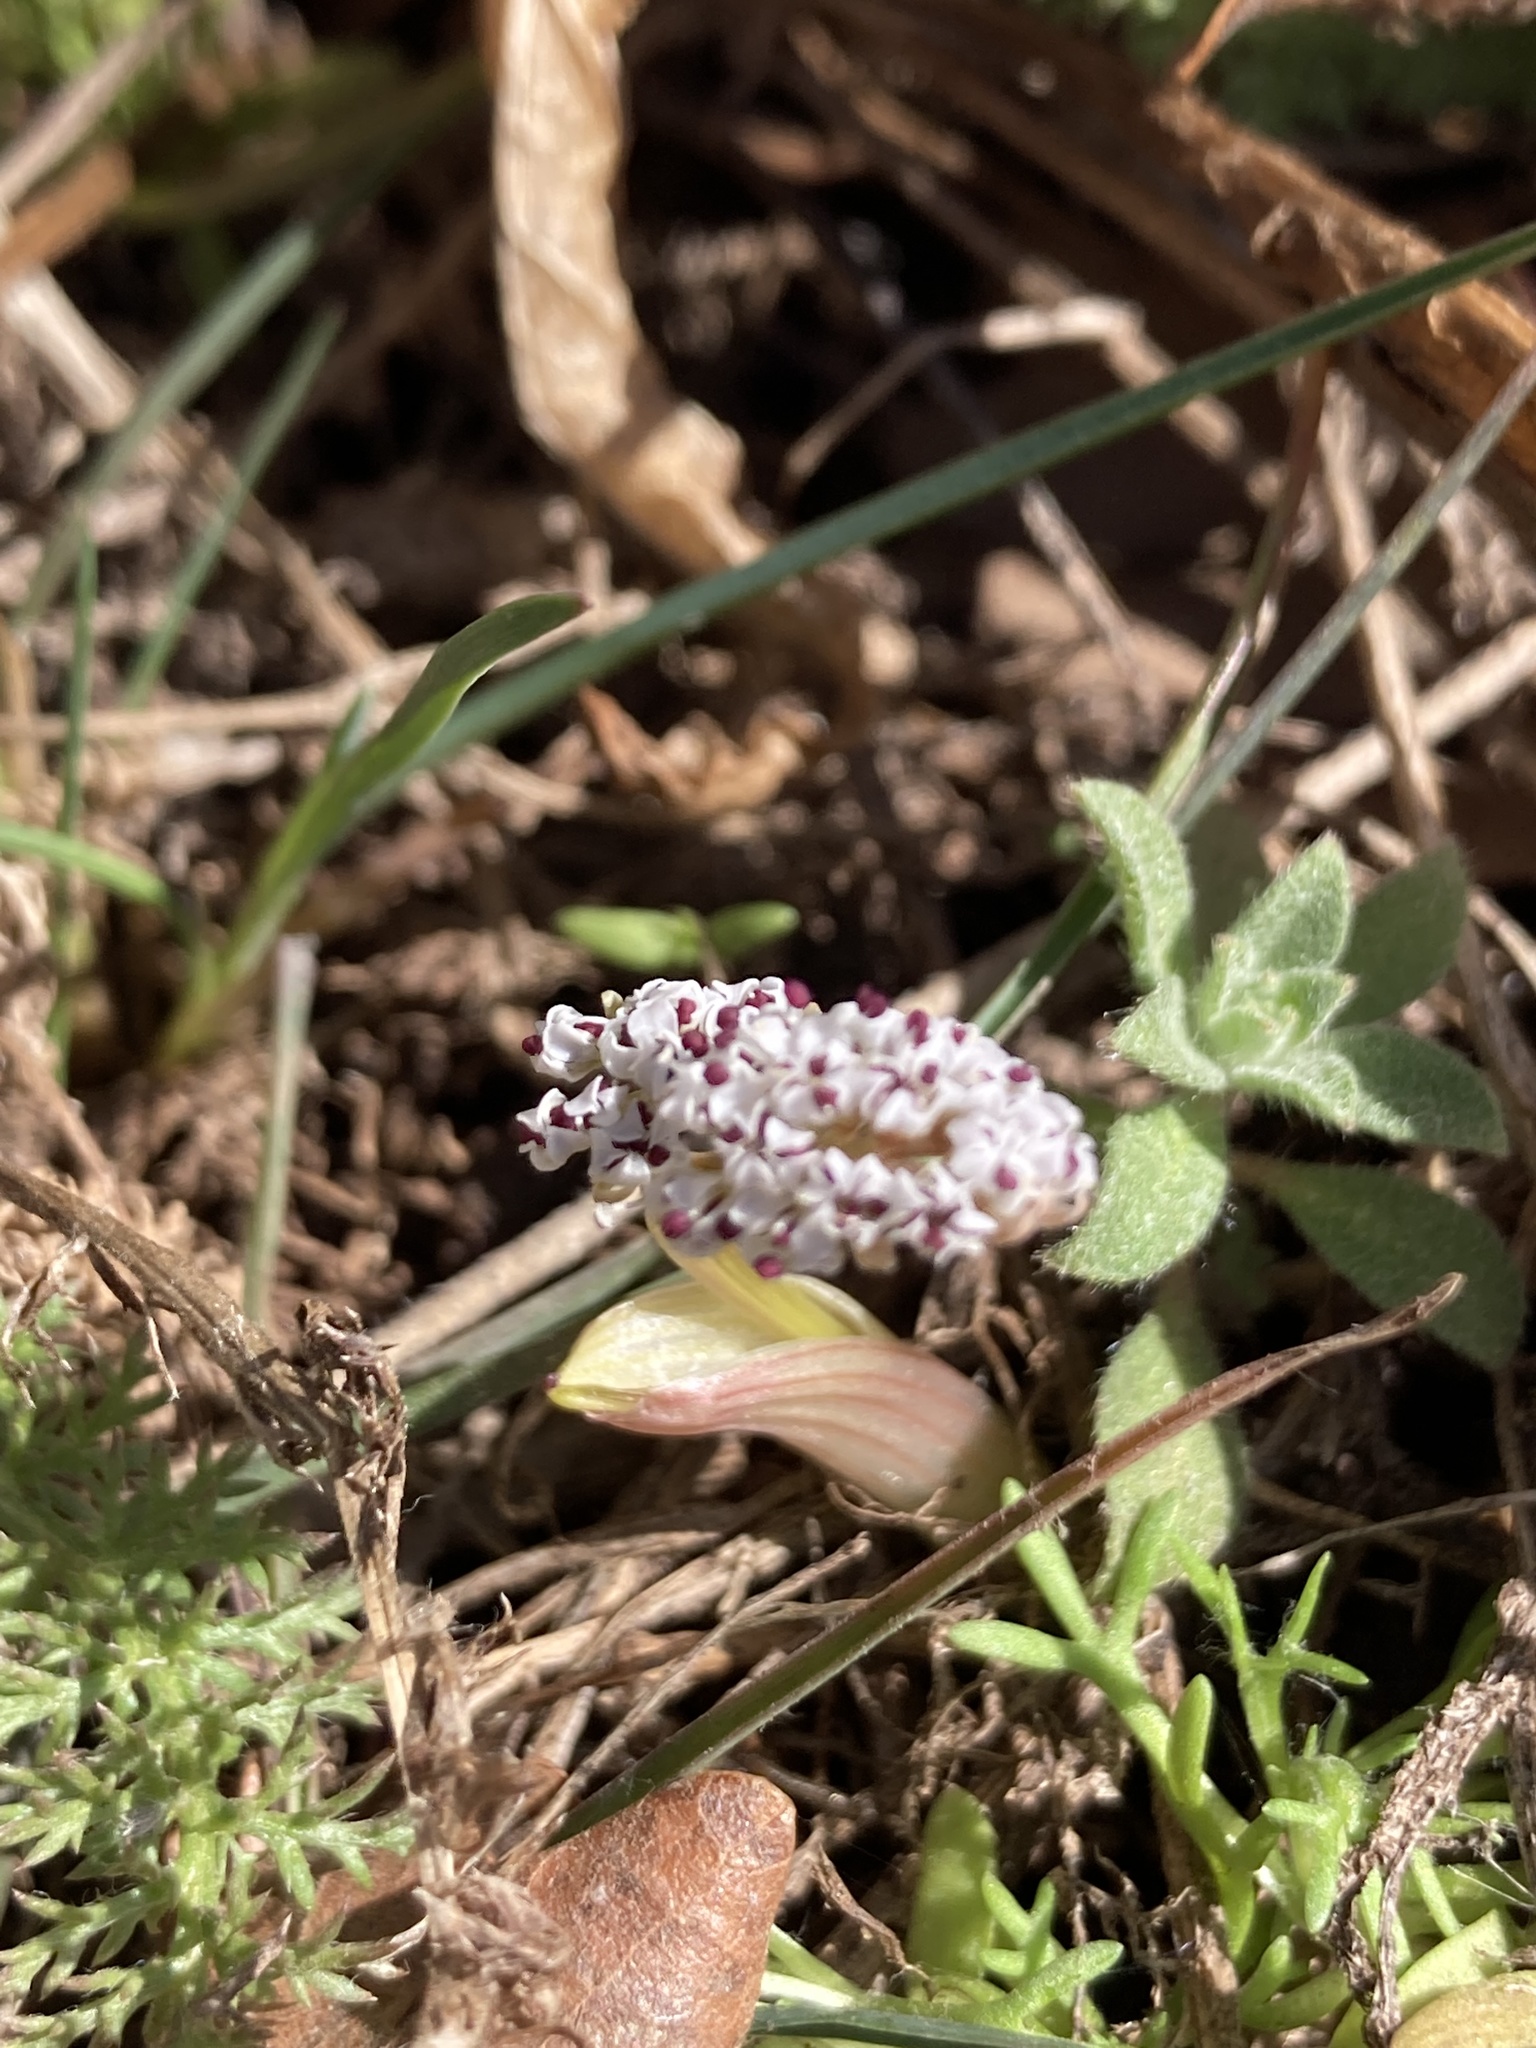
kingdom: Plantae
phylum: Tracheophyta
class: Magnoliopsida
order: Apiales
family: Apiaceae
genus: Lomatium
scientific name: Lomatium linearifolium
